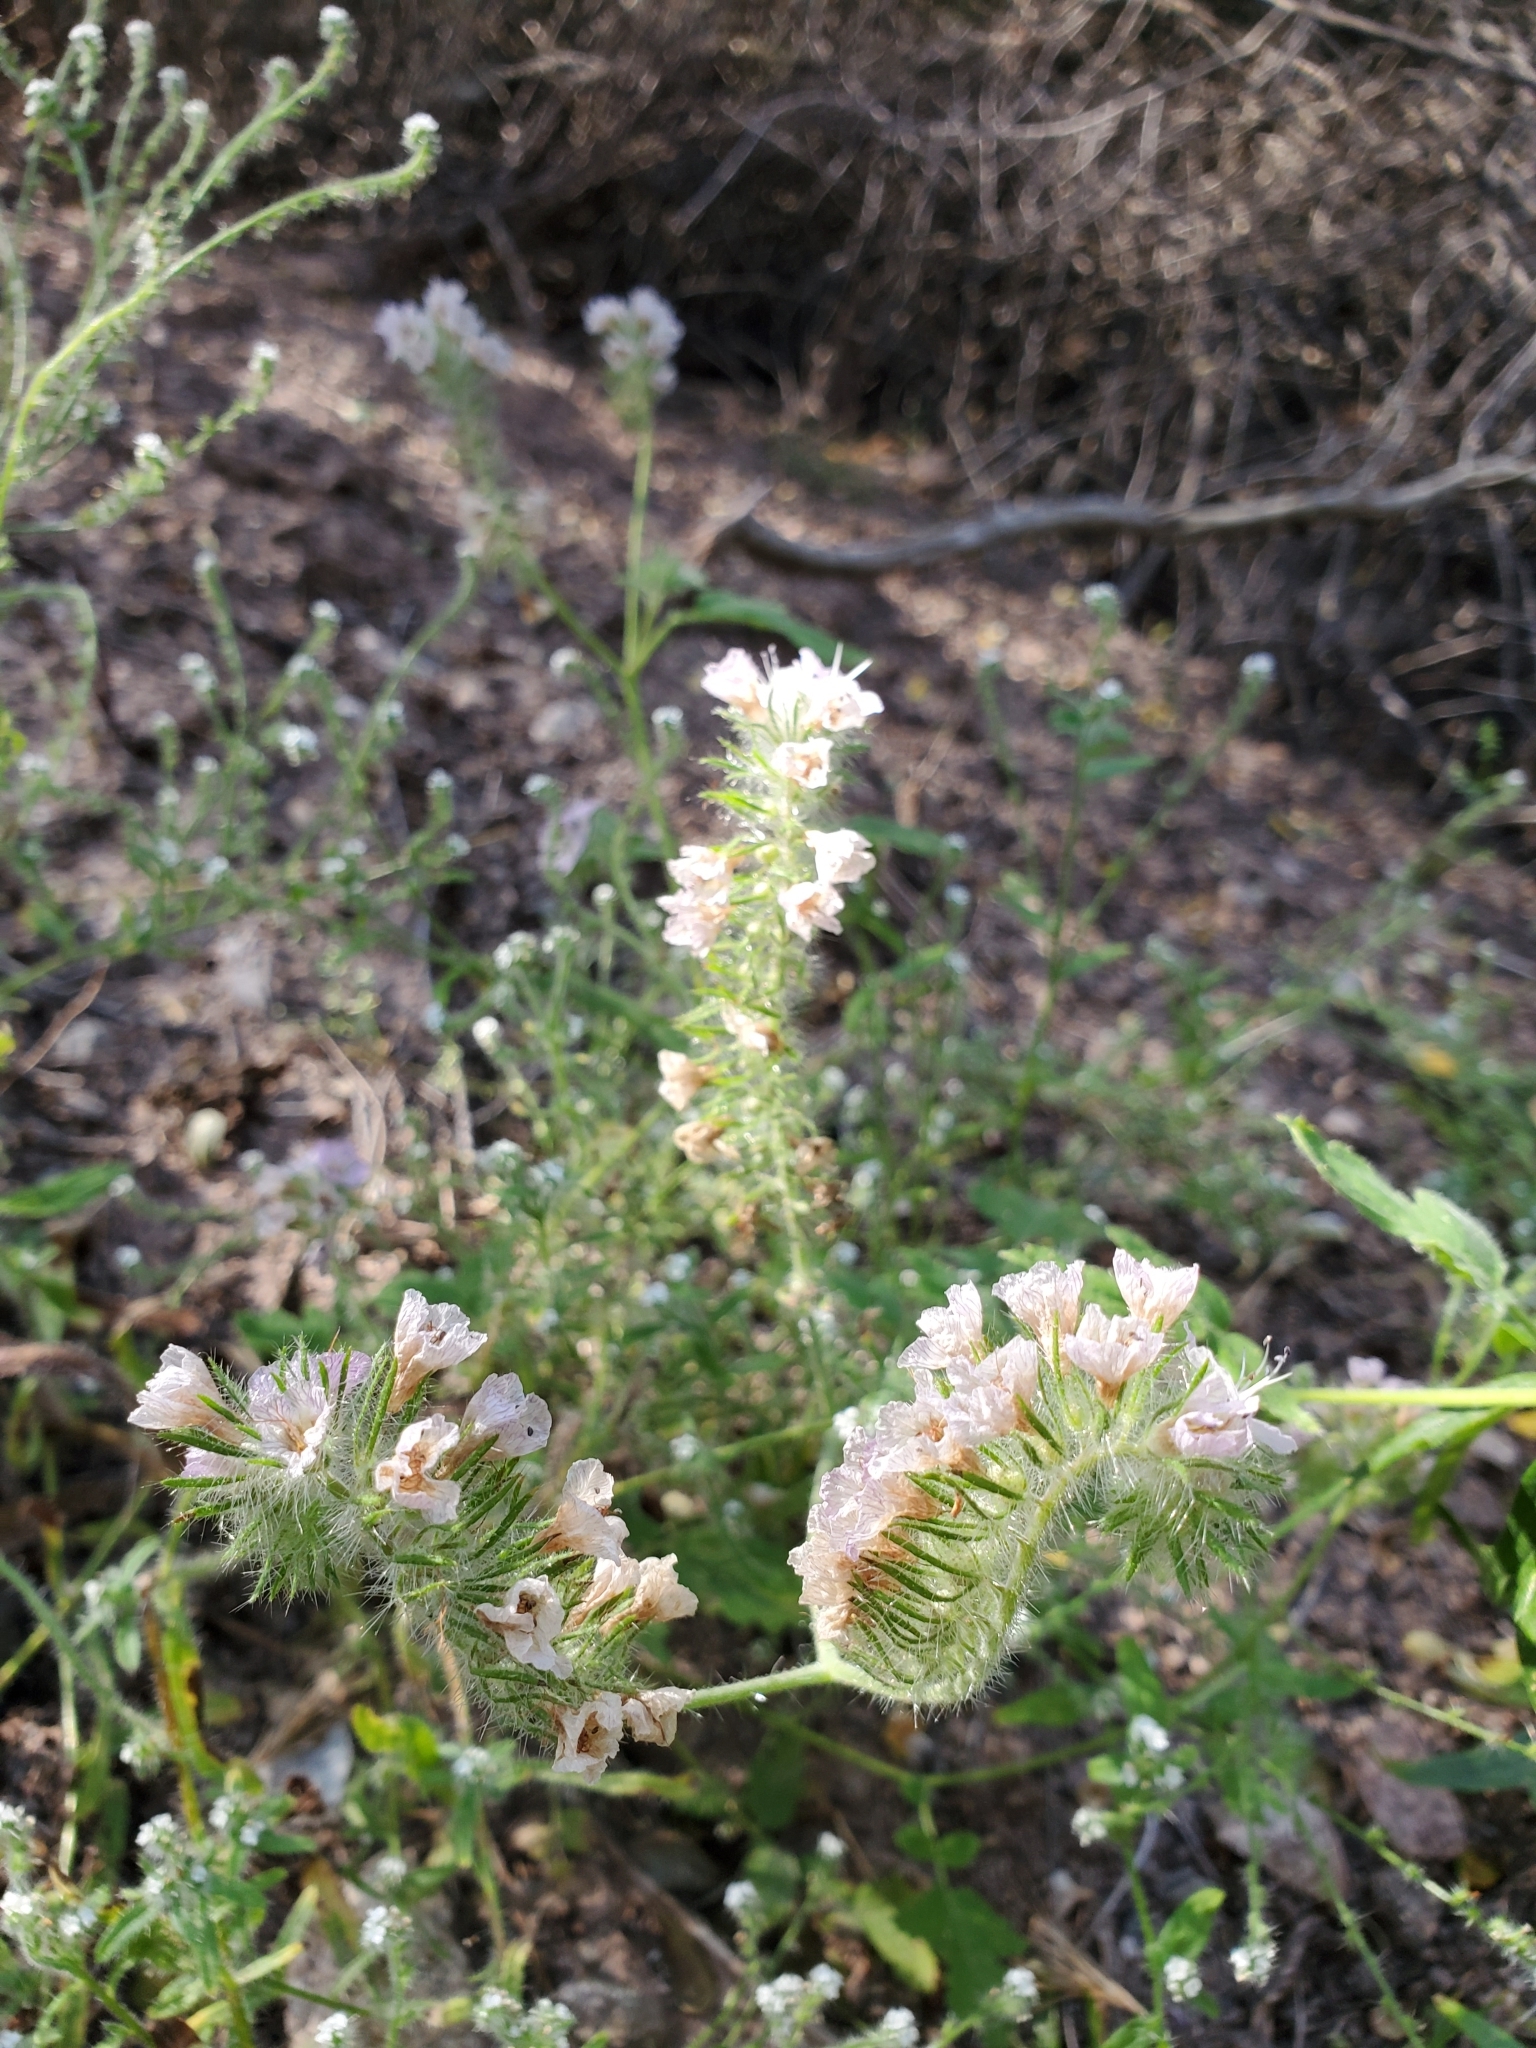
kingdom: Plantae
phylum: Tracheophyta
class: Magnoliopsida
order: Boraginales
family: Hydrophyllaceae
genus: Phacelia
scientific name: Phacelia cicutaria
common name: Caterpillar phacelia
